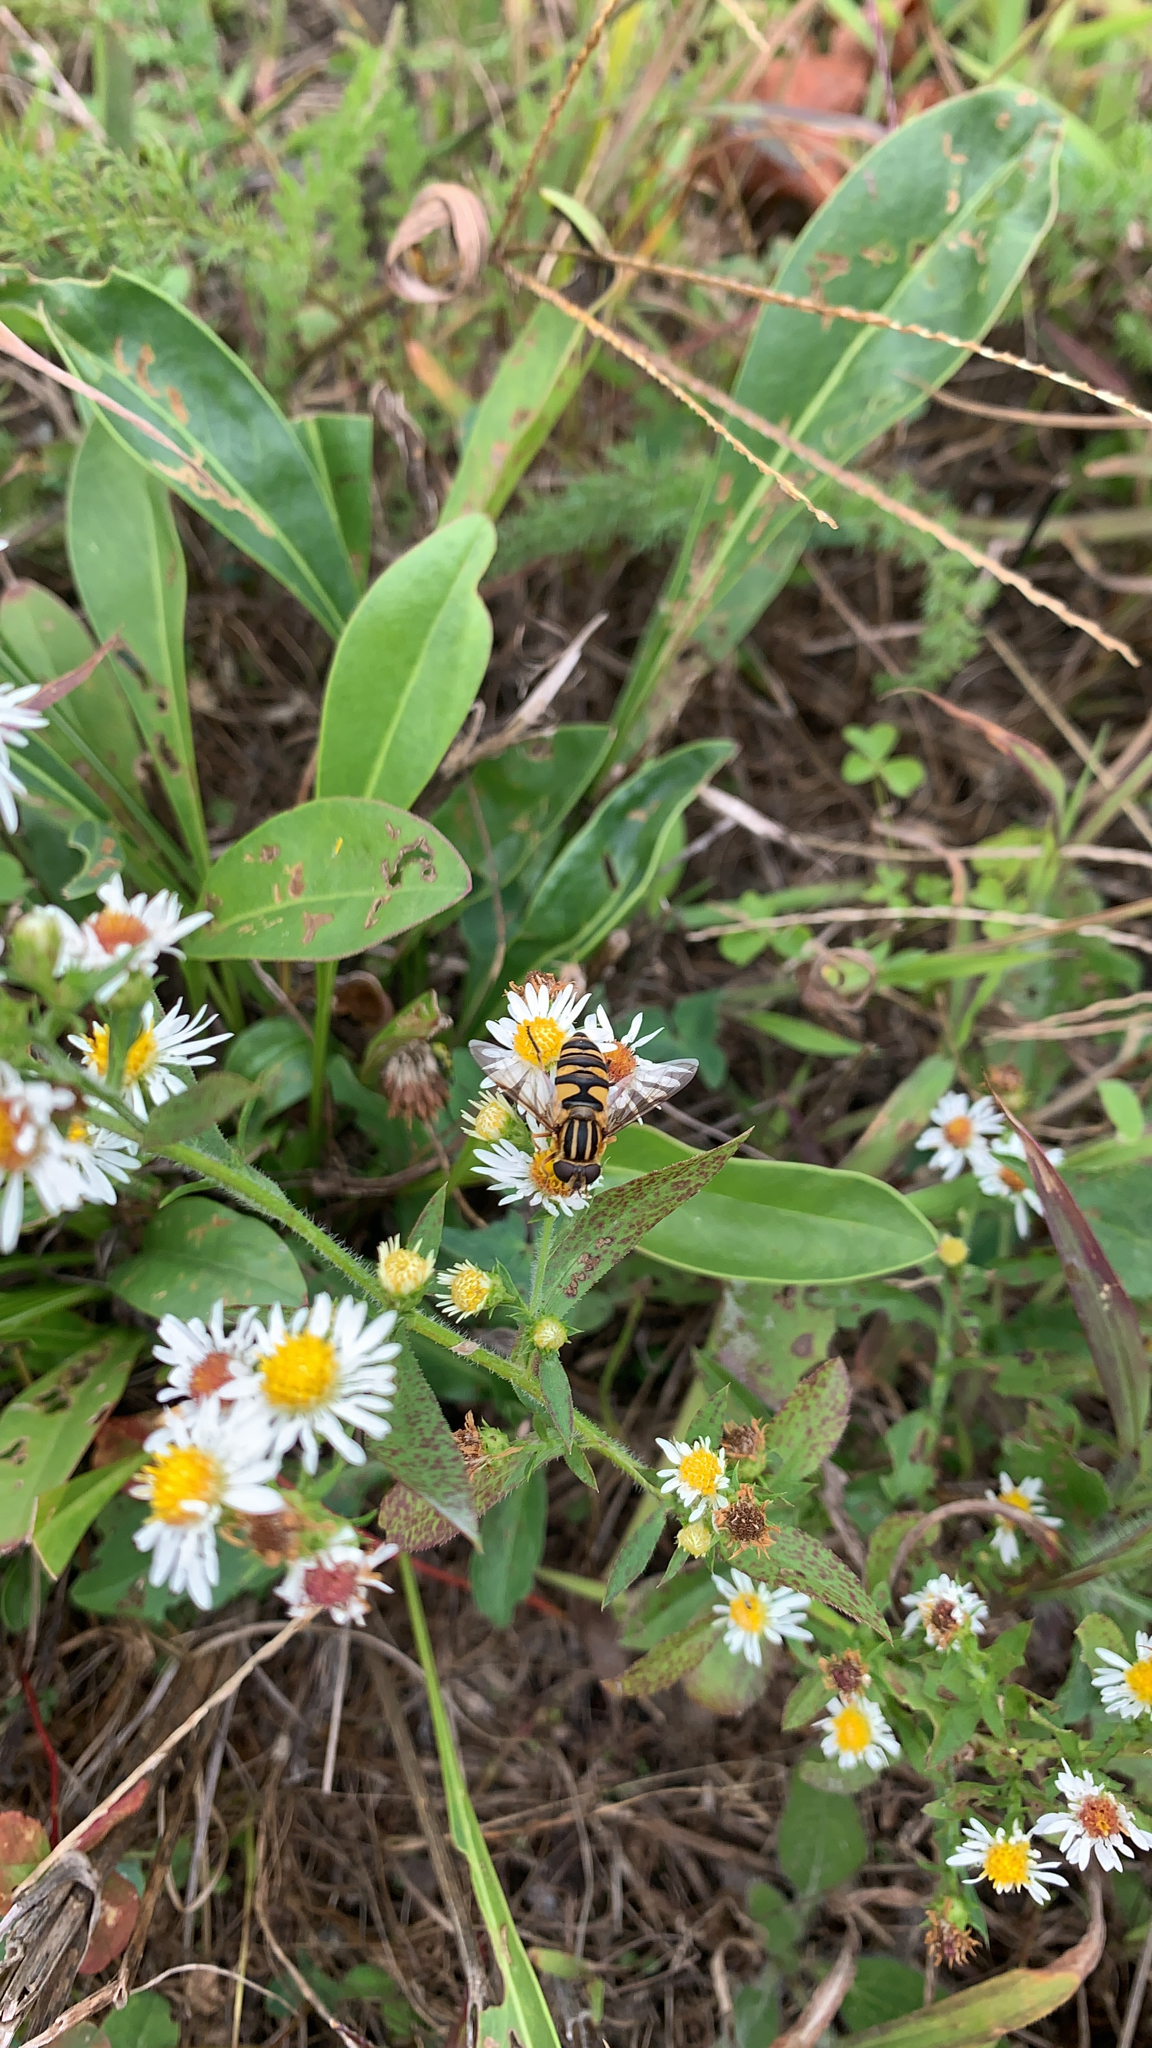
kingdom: Animalia
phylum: Arthropoda
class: Insecta
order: Diptera
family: Syrphidae
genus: Helophilus
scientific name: Helophilus fasciatus
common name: Narrow-headed marsh fly
